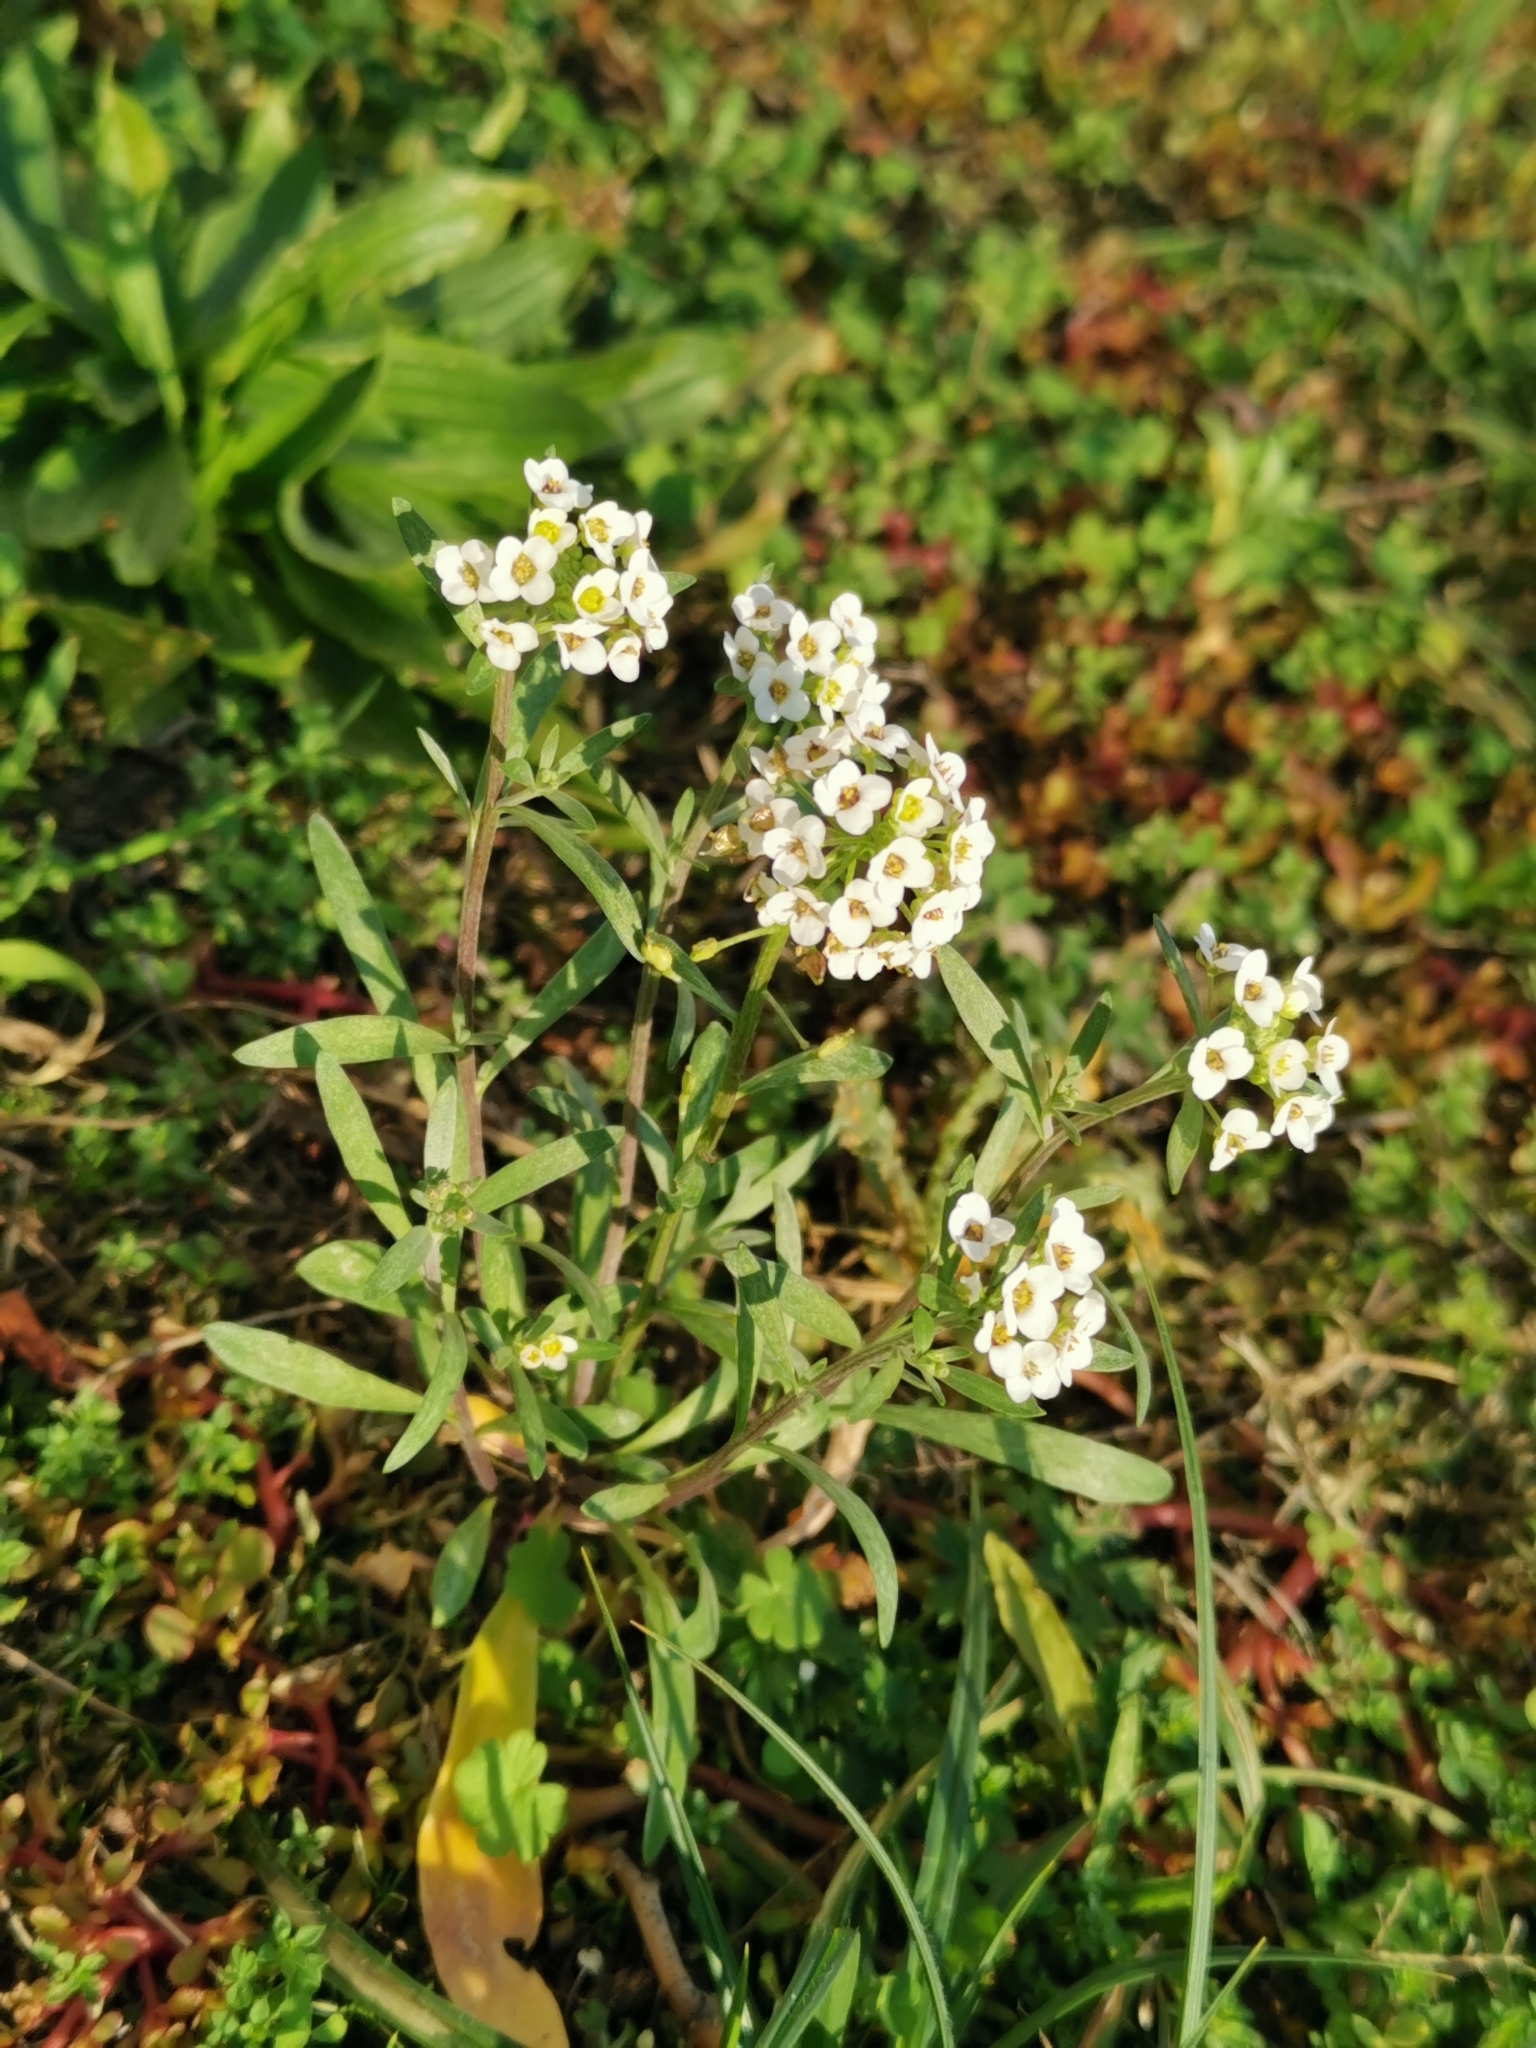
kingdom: Plantae
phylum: Tracheophyta
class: Magnoliopsida
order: Brassicales
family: Brassicaceae
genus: Lobularia
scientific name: Lobularia maritima
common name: Sweet alison
